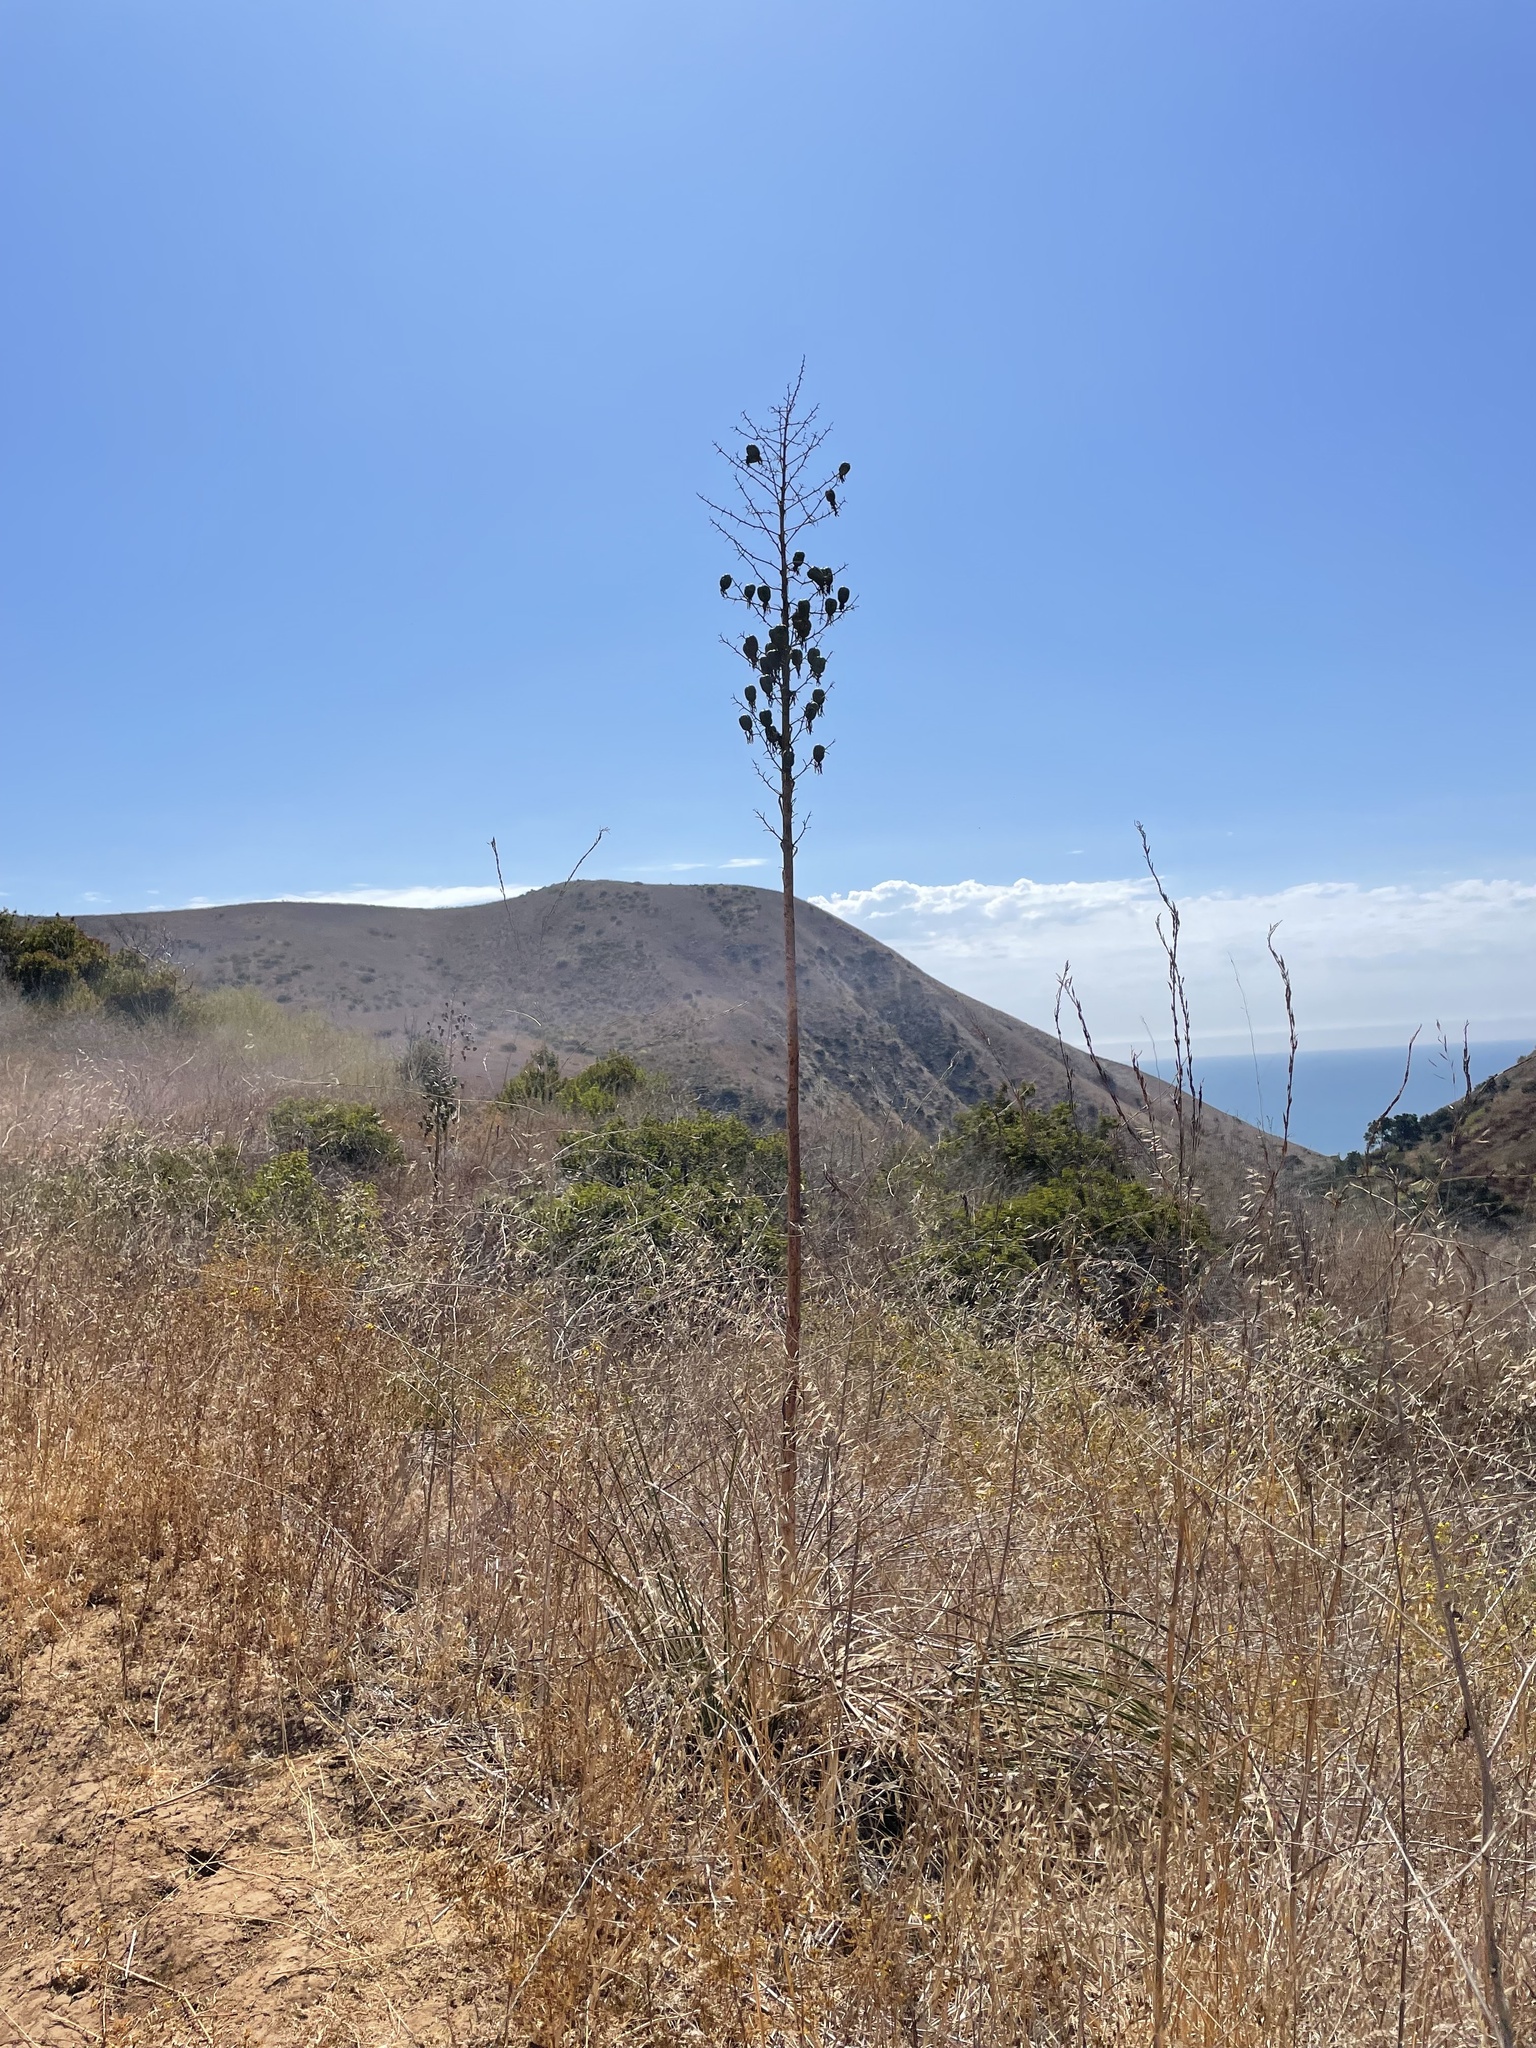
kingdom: Plantae
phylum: Tracheophyta
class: Liliopsida
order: Asparagales
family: Asparagaceae
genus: Hesperoyucca
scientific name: Hesperoyucca whipplei
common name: Our lord's-candle
